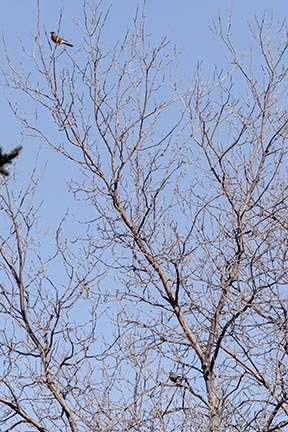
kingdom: Animalia
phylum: Chordata
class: Aves
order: Passeriformes
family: Turdidae
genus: Turdus
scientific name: Turdus migratorius
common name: American robin
